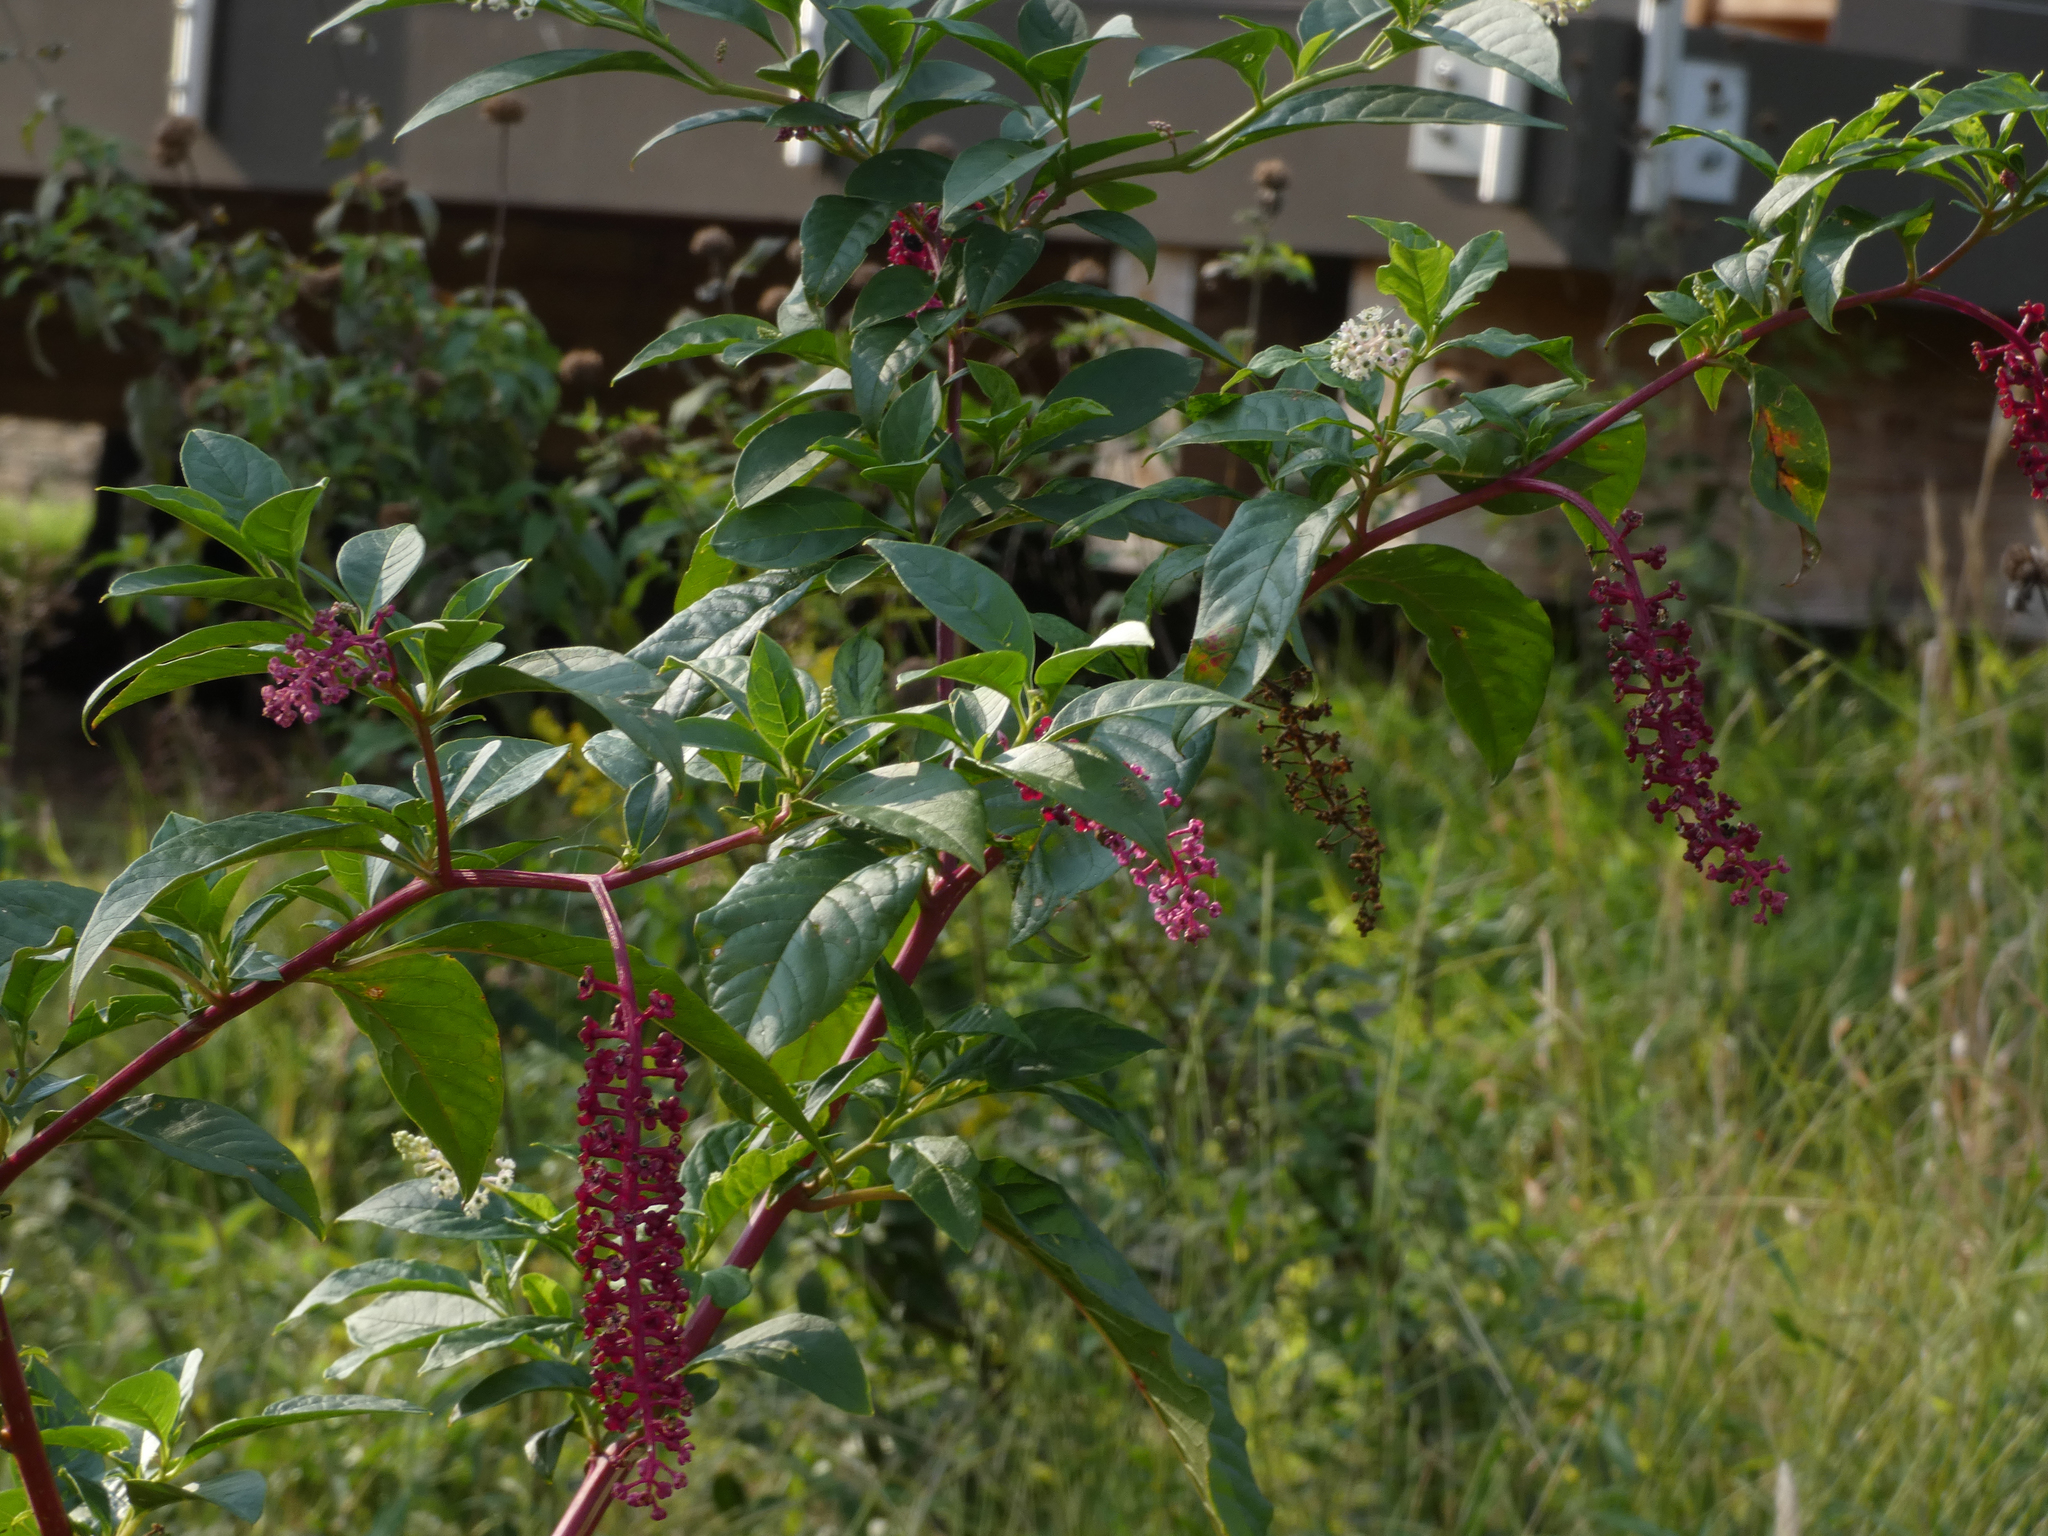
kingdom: Plantae
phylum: Tracheophyta
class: Magnoliopsida
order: Caryophyllales
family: Phytolaccaceae
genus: Phytolacca
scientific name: Phytolacca americana
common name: American pokeweed
